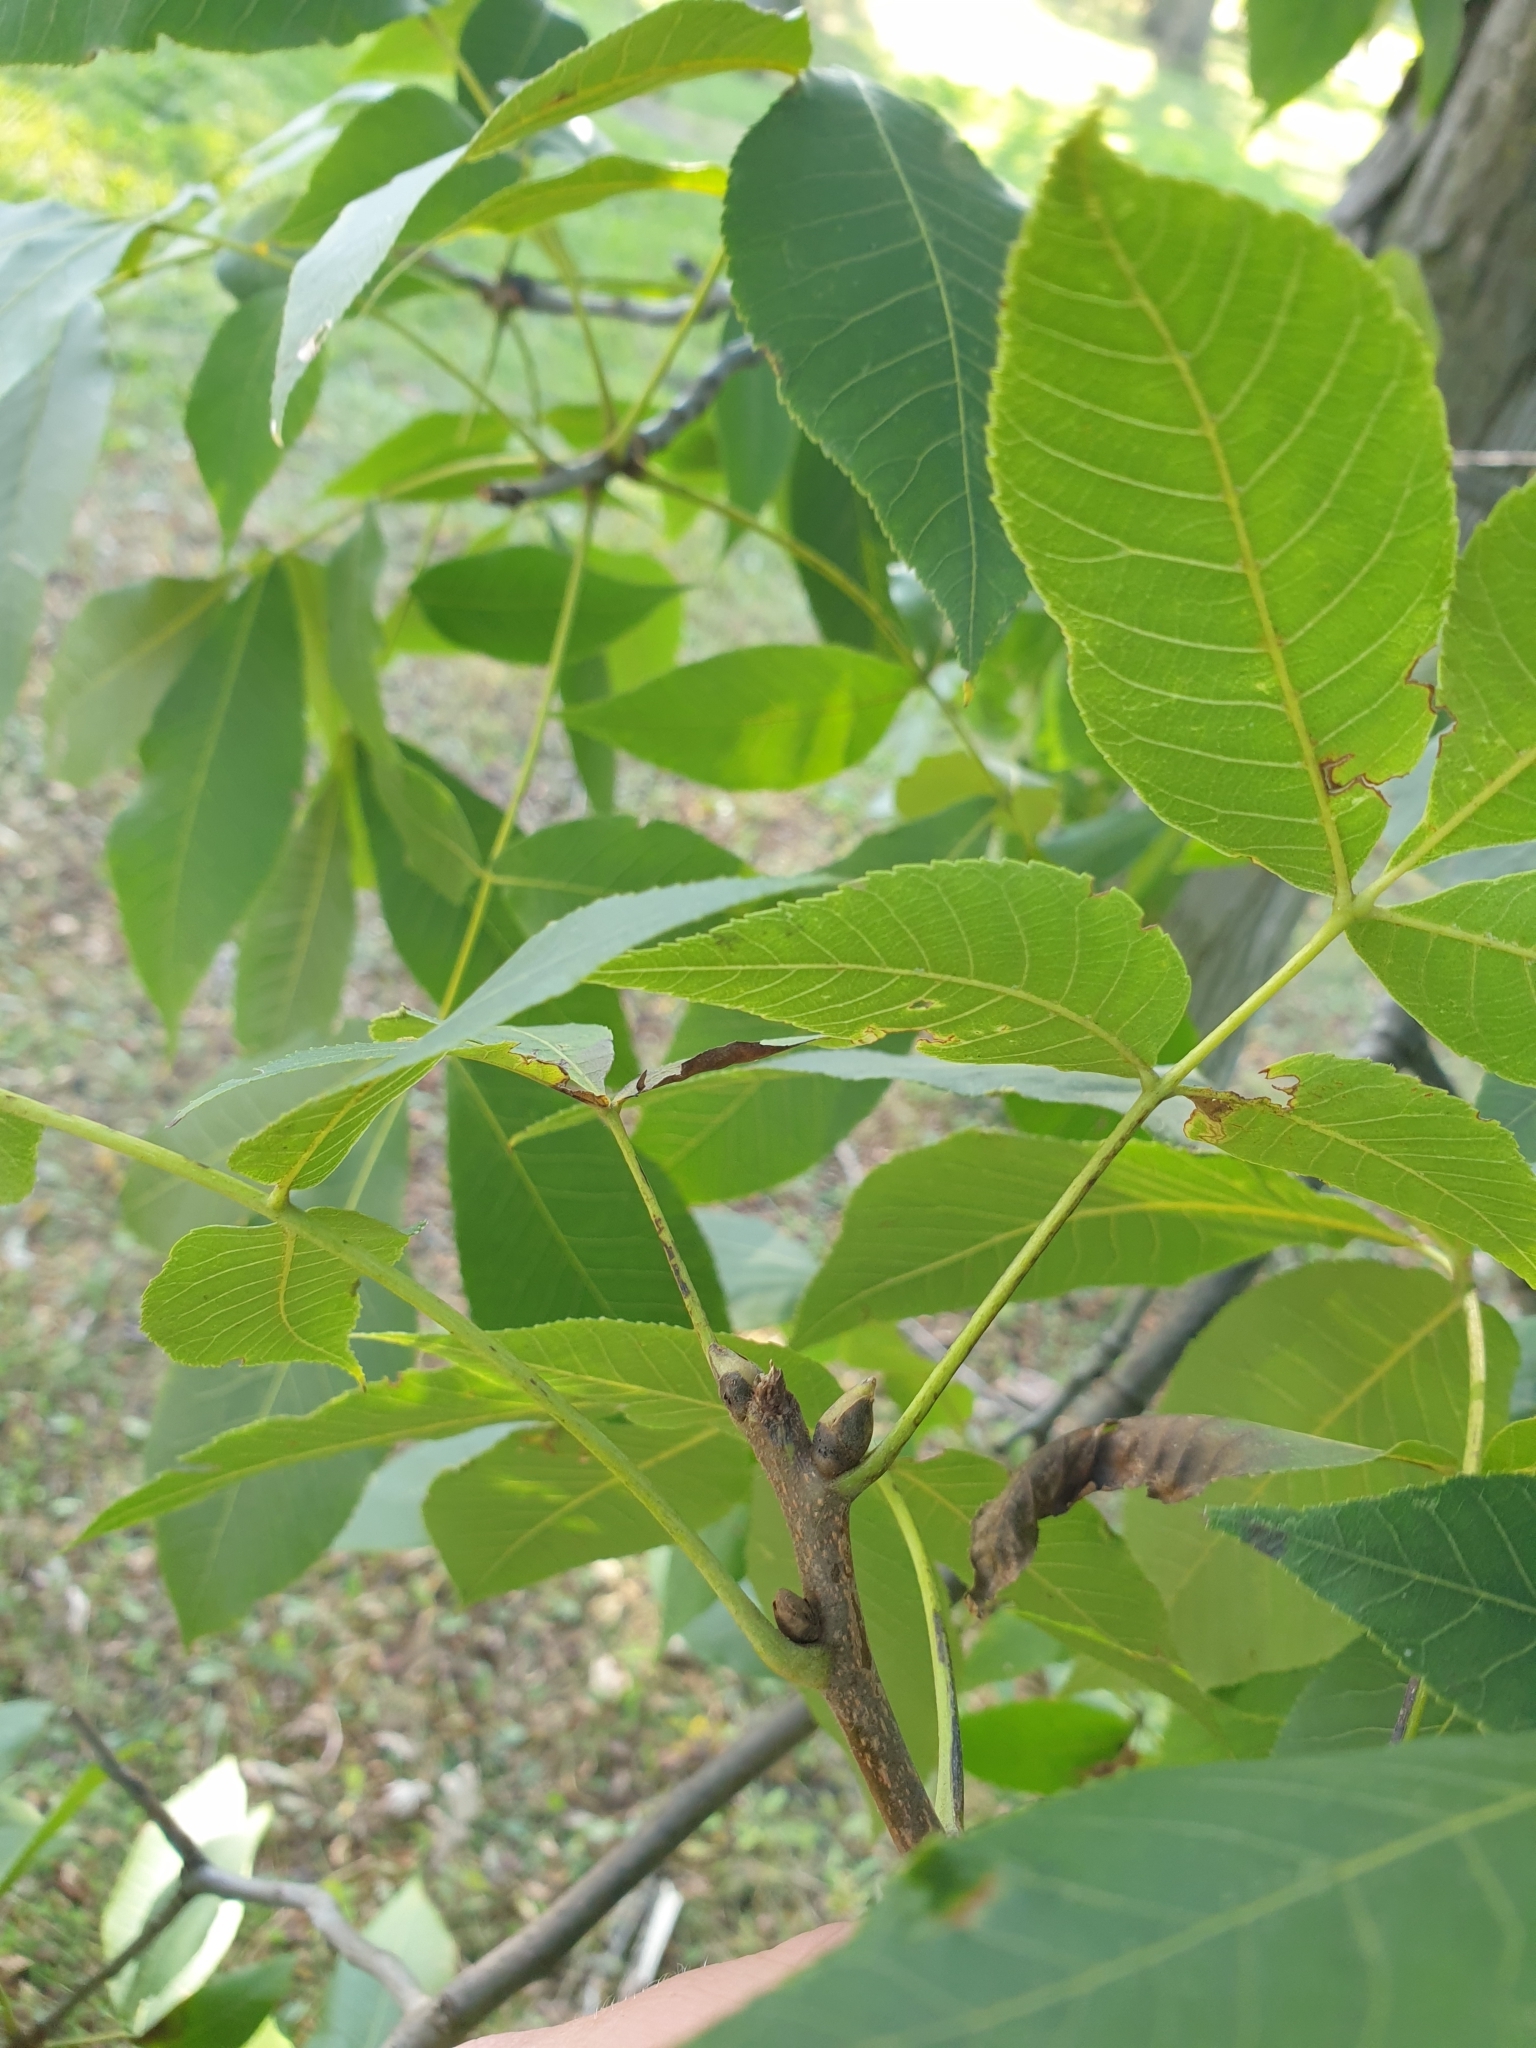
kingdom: Plantae
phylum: Tracheophyta
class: Magnoliopsida
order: Fagales
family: Juglandaceae
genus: Carya
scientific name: Carya ovata
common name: Shagbark hickory
